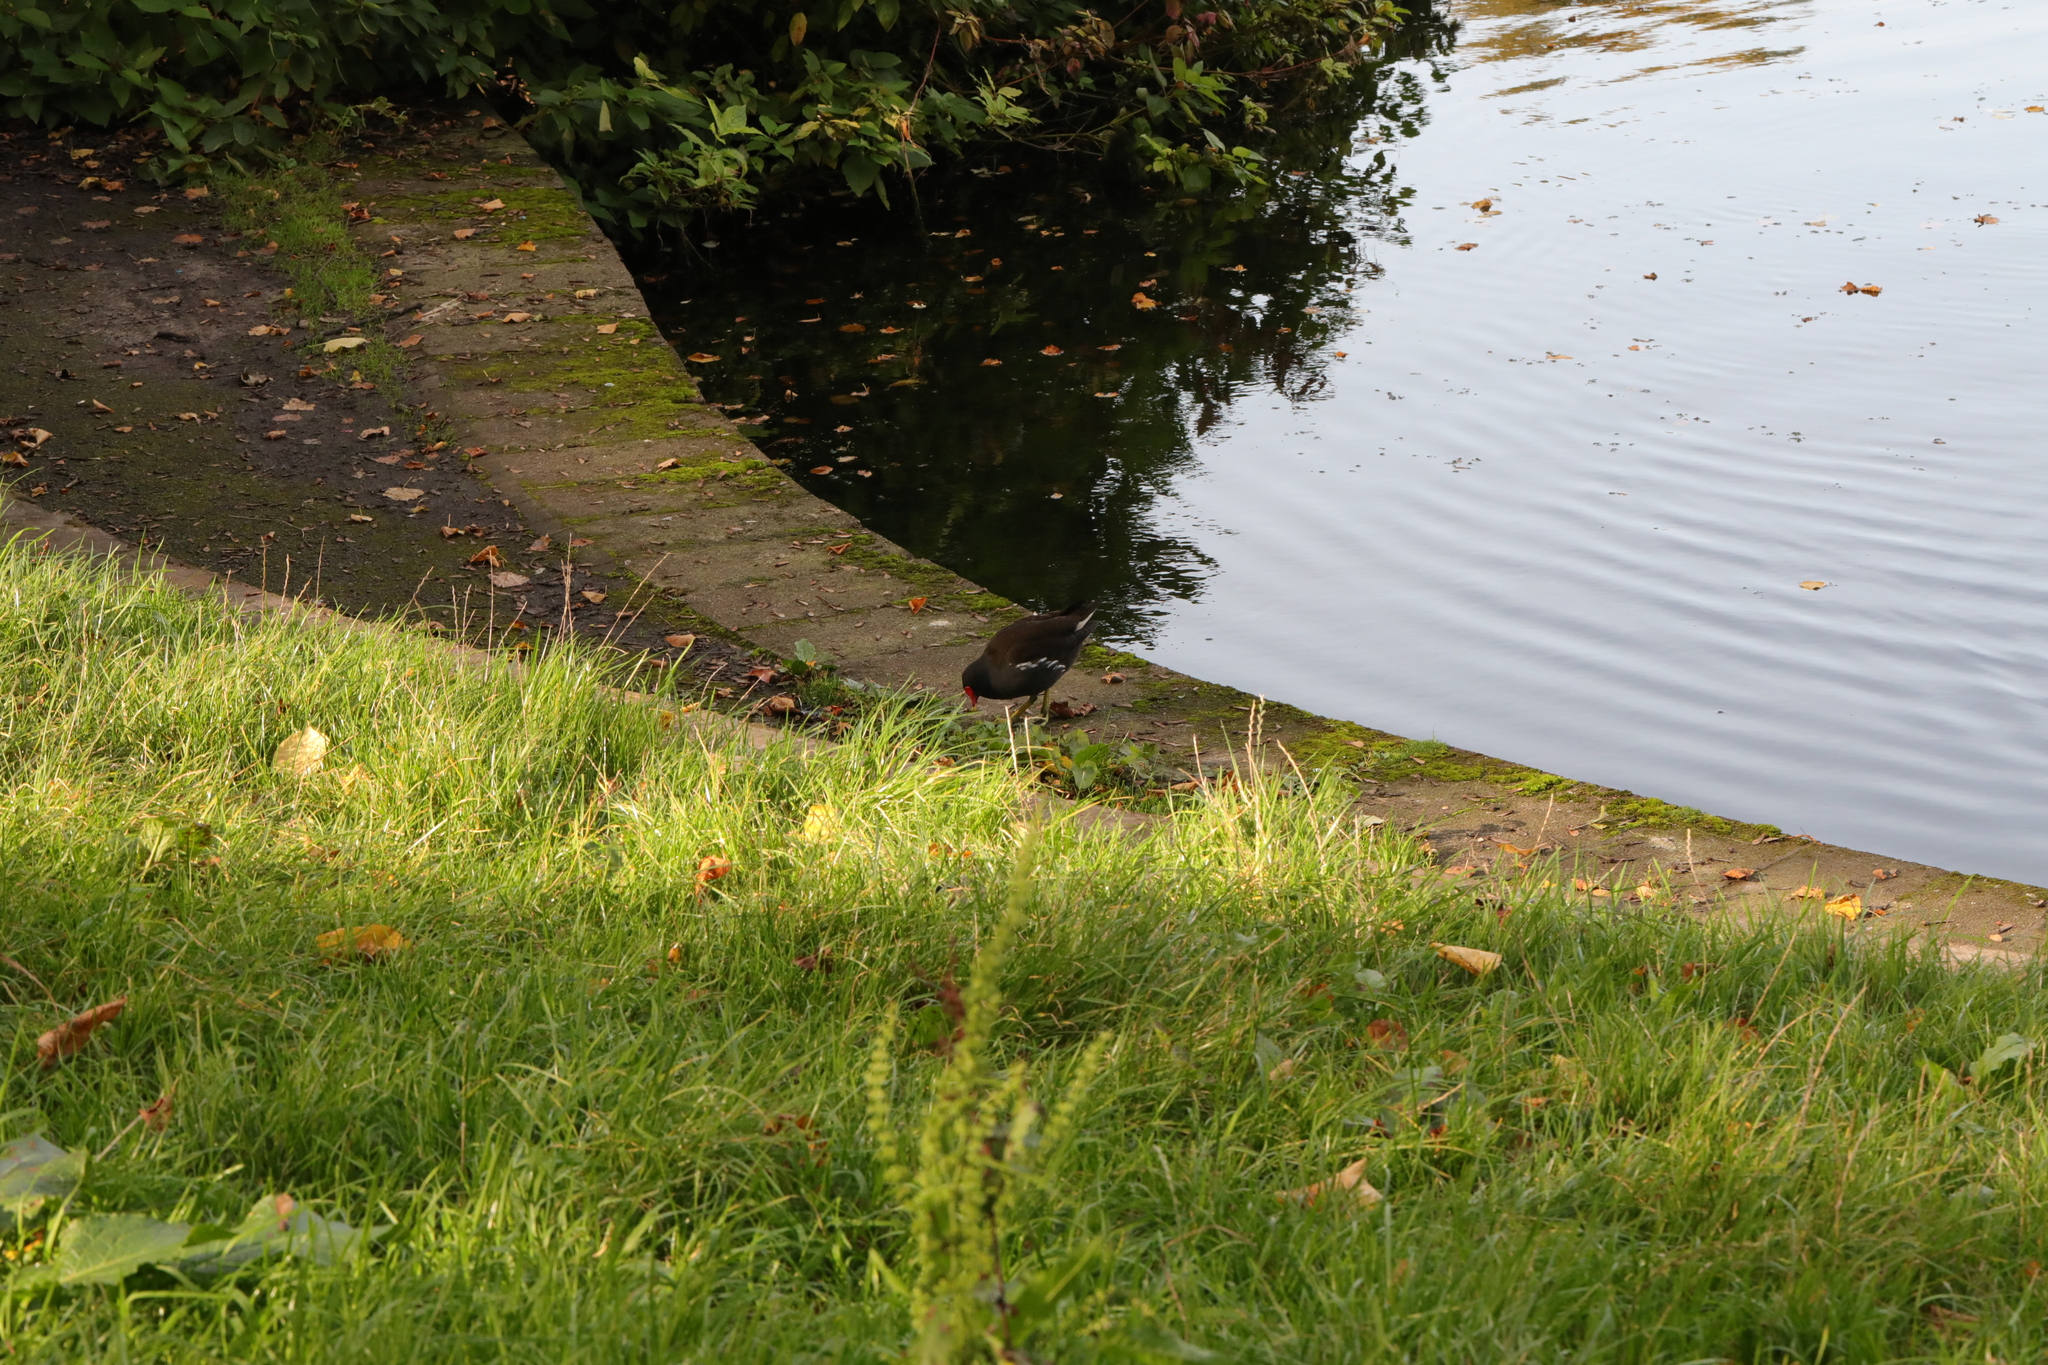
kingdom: Animalia
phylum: Chordata
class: Aves
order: Gruiformes
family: Rallidae
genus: Gallinula
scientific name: Gallinula chloropus
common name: Common moorhen
